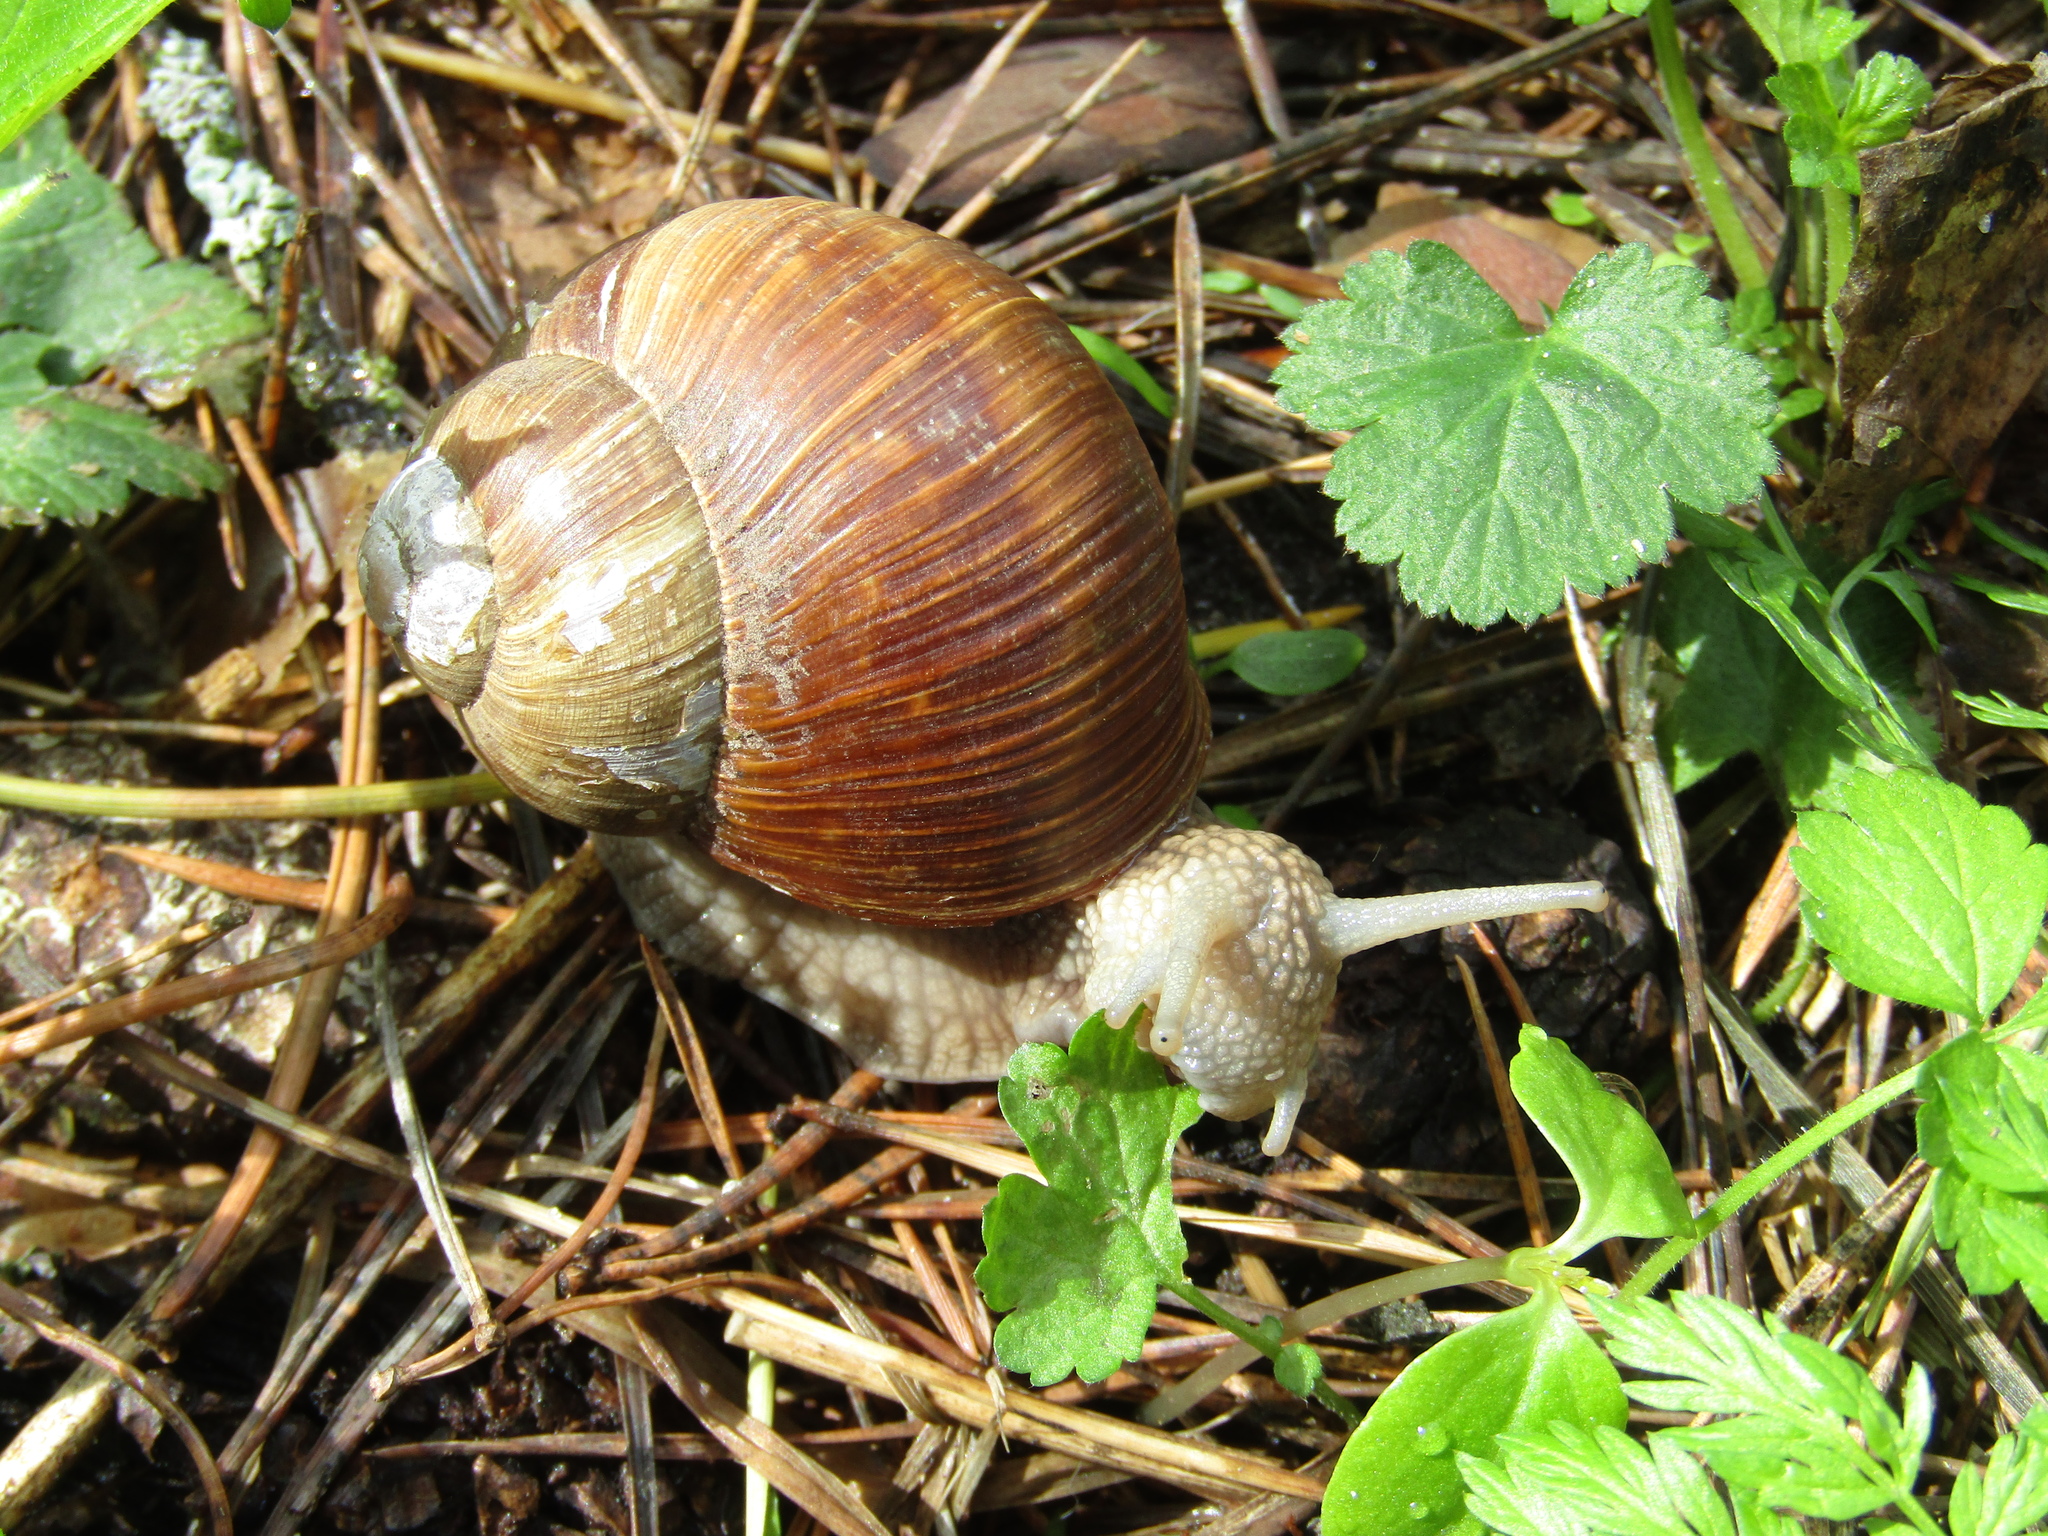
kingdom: Animalia
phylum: Mollusca
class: Gastropoda
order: Stylommatophora
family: Helicidae
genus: Helix
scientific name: Helix pomatia
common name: Roman snail
